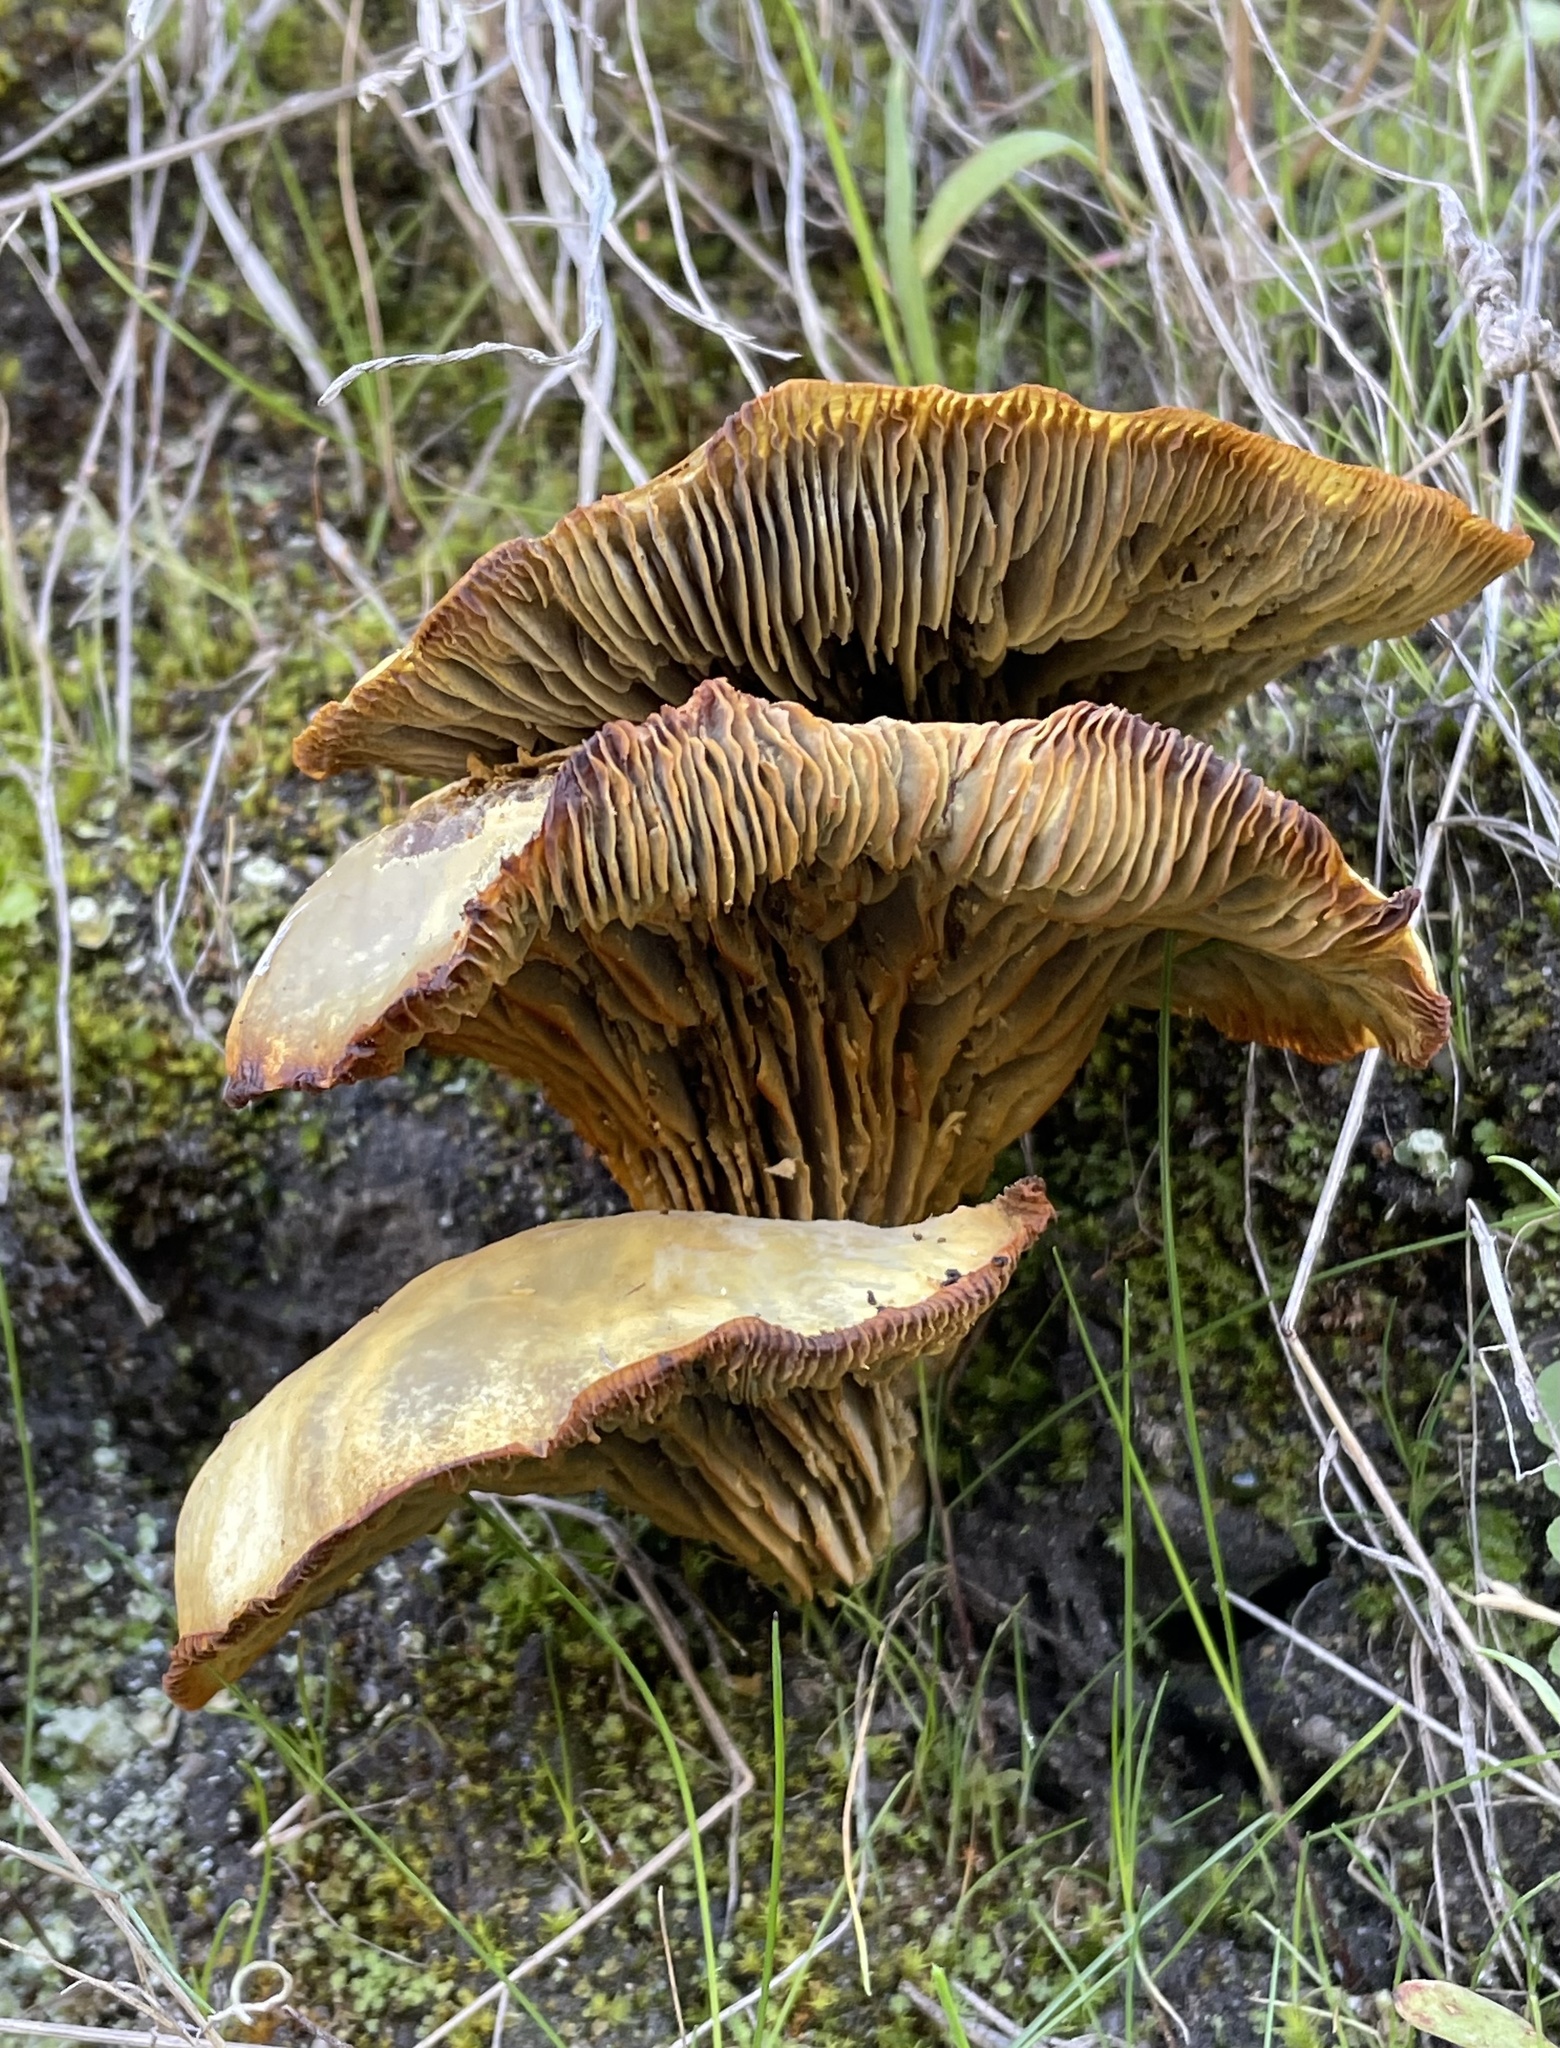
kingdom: Fungi
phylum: Basidiomycota
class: Agaricomycetes
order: Agaricales
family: Omphalotaceae
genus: Omphalotus
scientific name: Omphalotus olivascens
